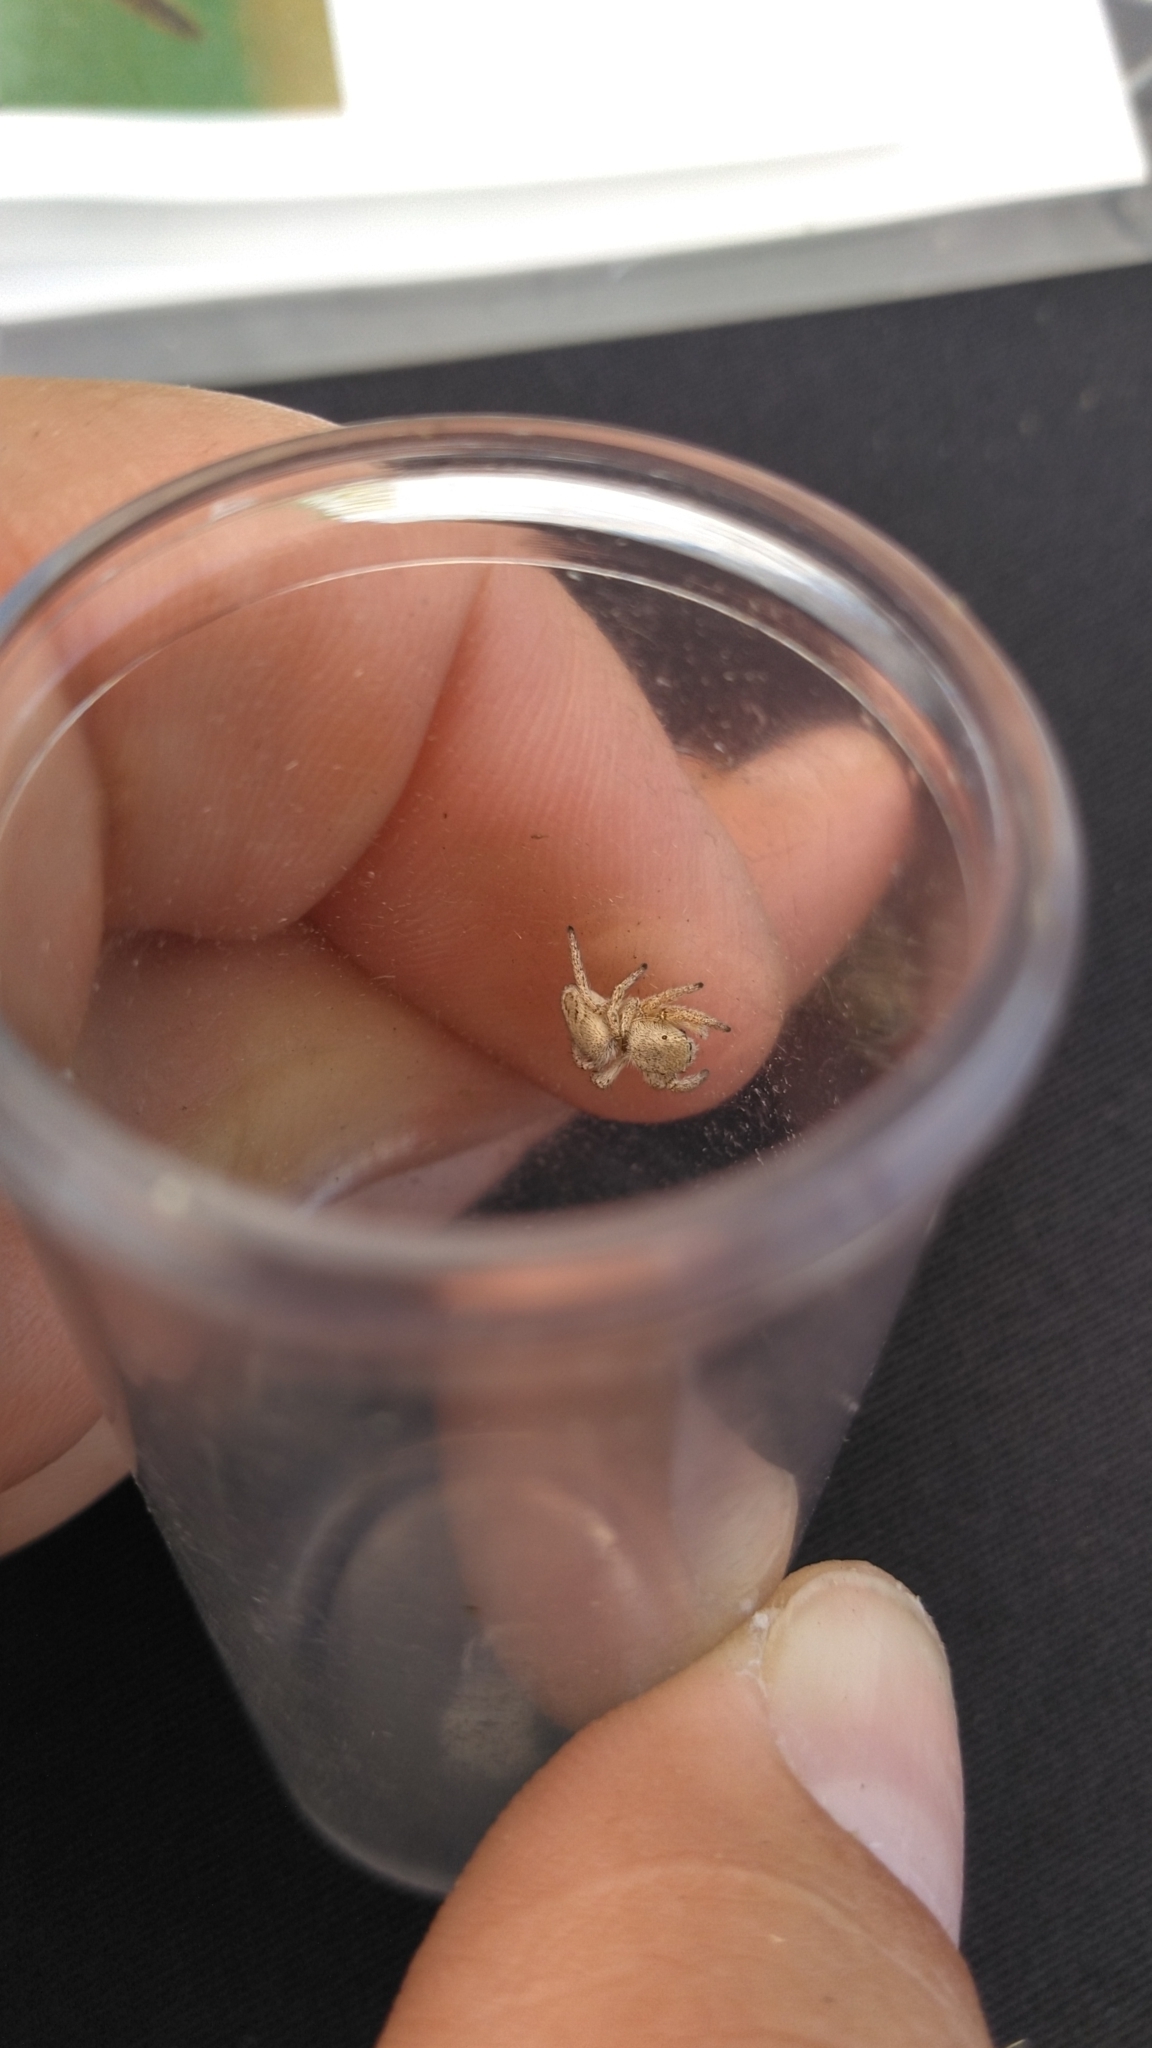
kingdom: Animalia
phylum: Arthropoda
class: Arachnida
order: Araneae
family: Salticidae
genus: Habronattus
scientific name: Habronattus festus
